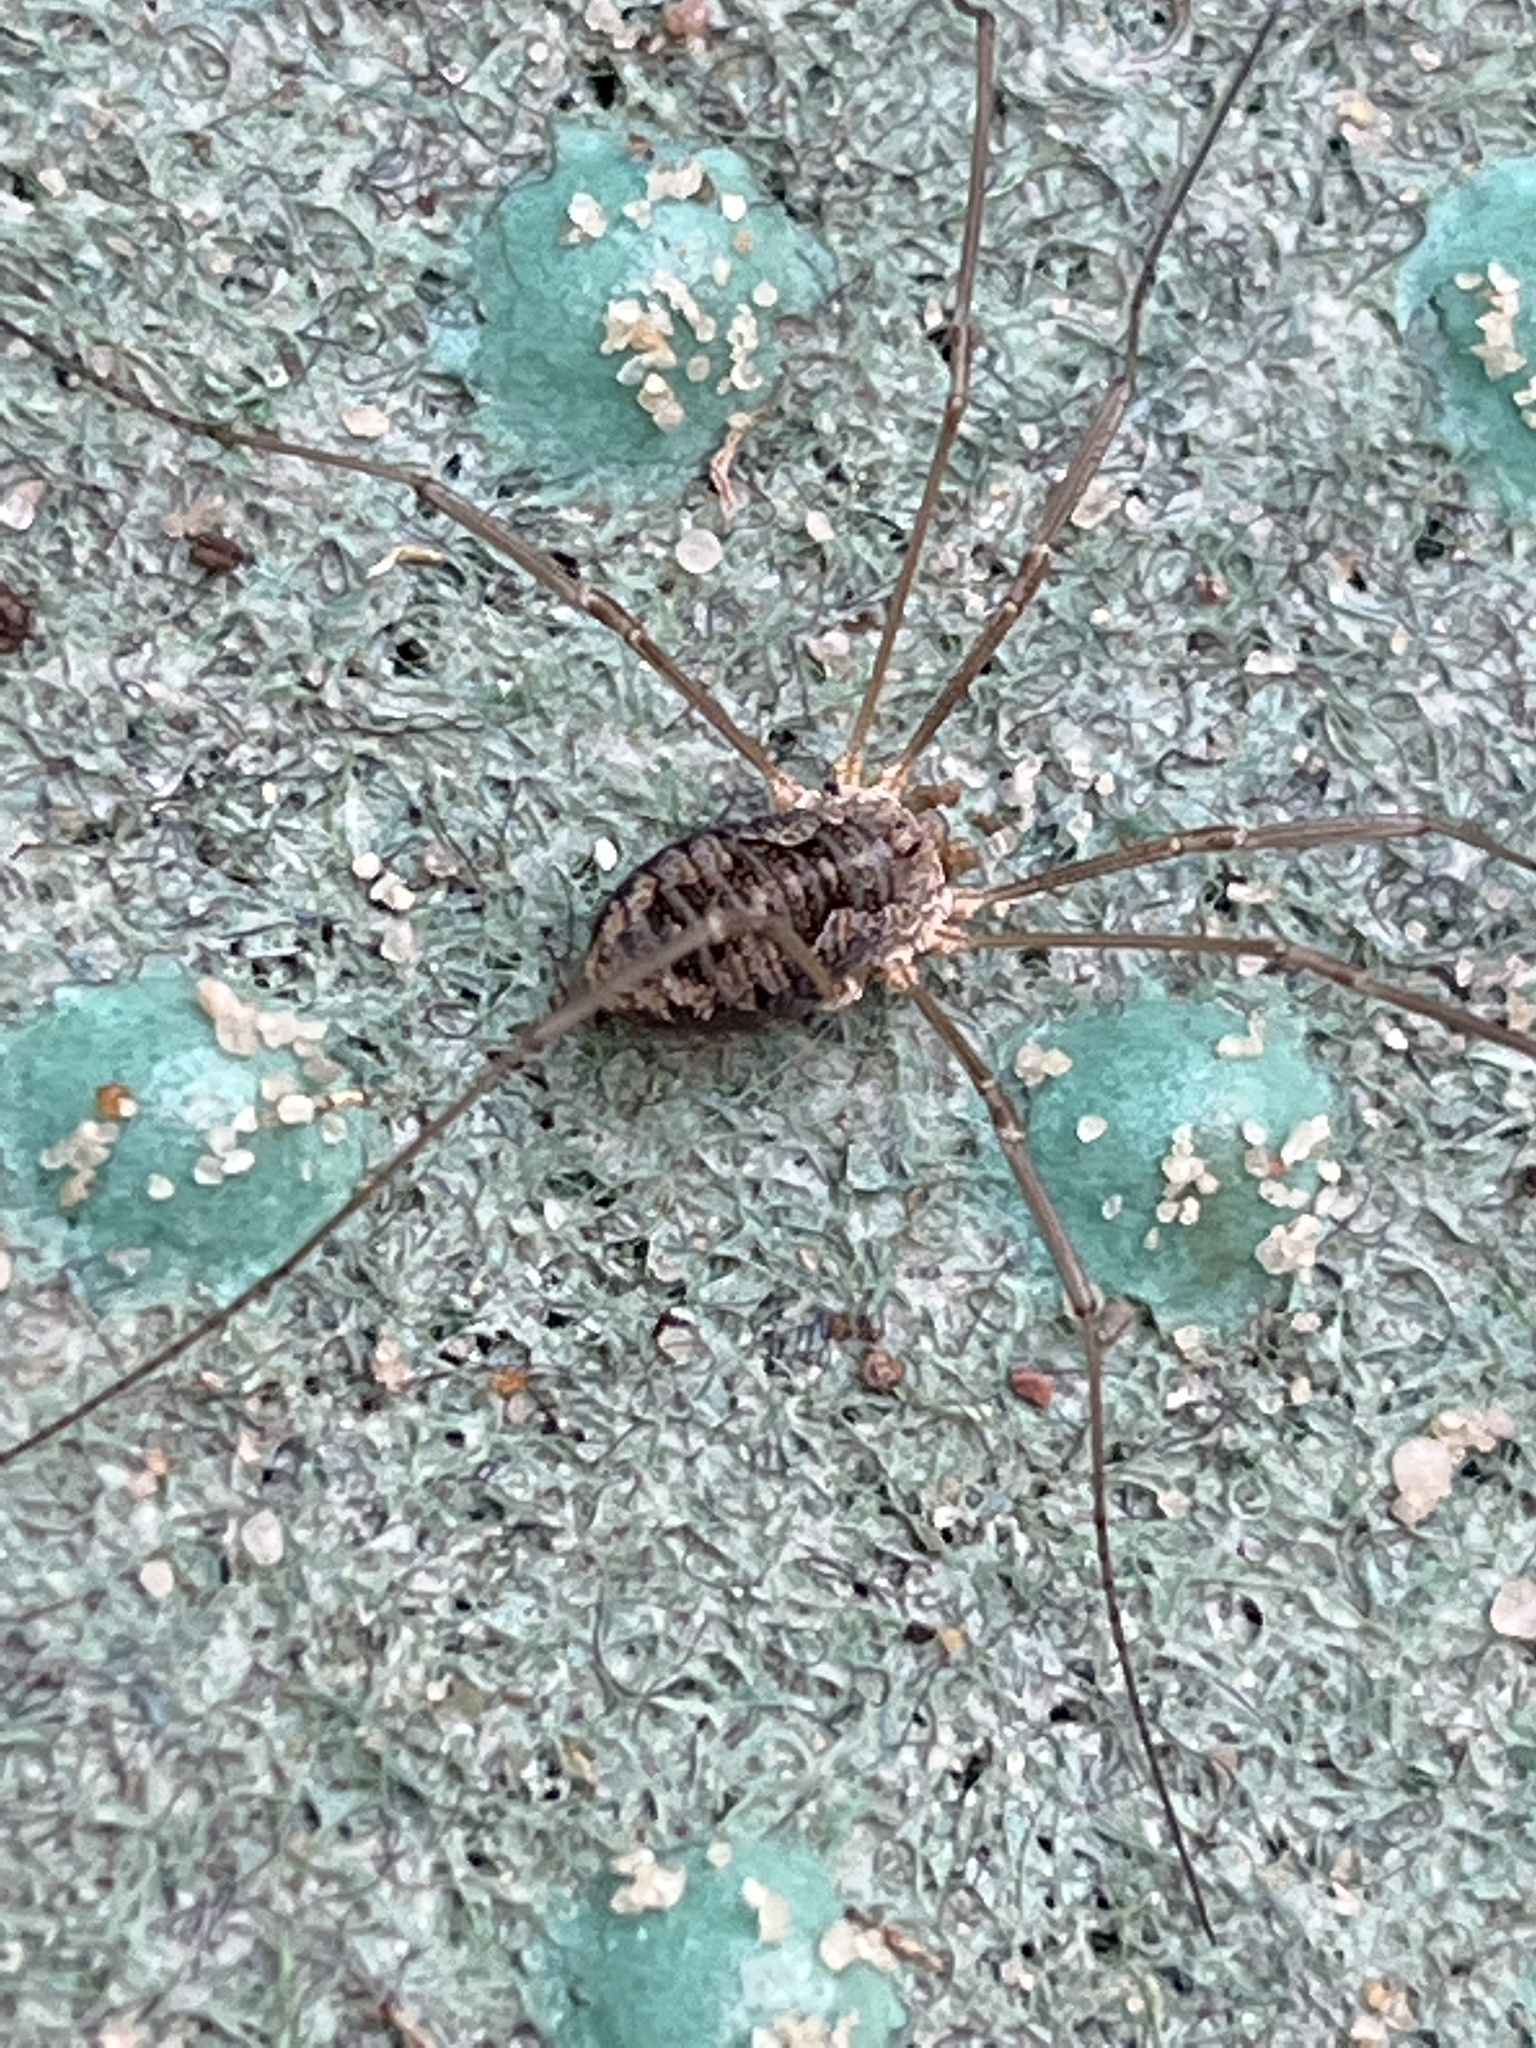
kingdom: Animalia
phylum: Arthropoda
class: Arachnida
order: Opiliones
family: Phalangiidae
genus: Phalangium
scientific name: Phalangium opilio
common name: Daddy longleg
